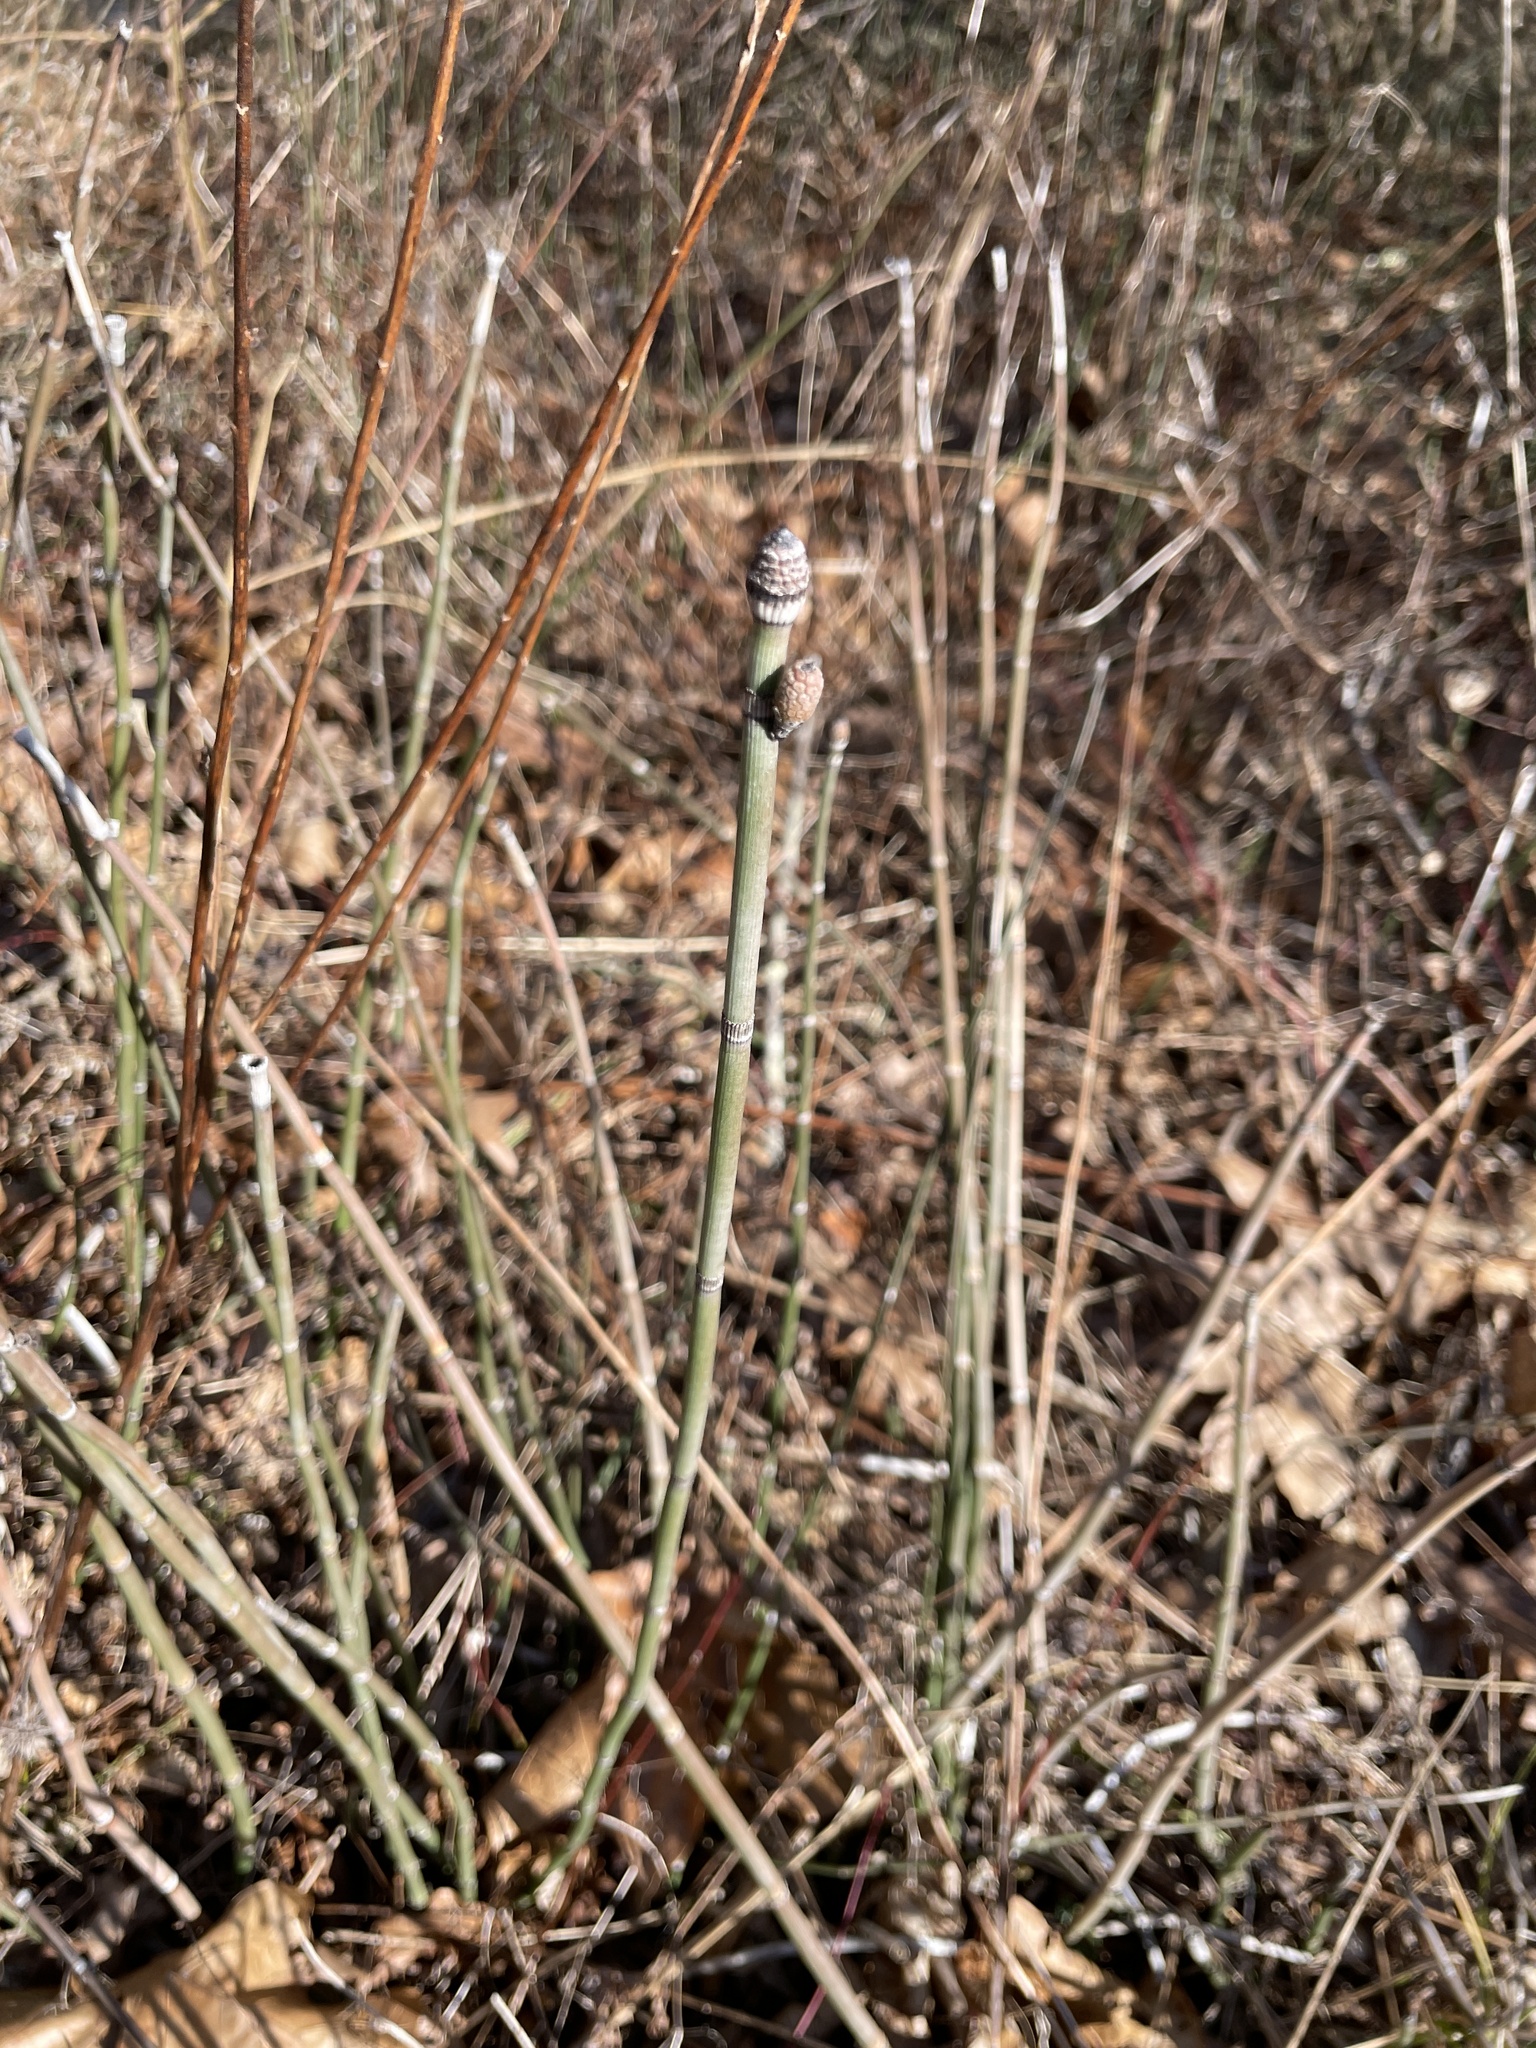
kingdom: Plantae
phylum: Tracheophyta
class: Polypodiopsida
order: Equisetales
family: Equisetaceae
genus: Equisetum
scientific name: Equisetum hyemale
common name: Rough horsetail
